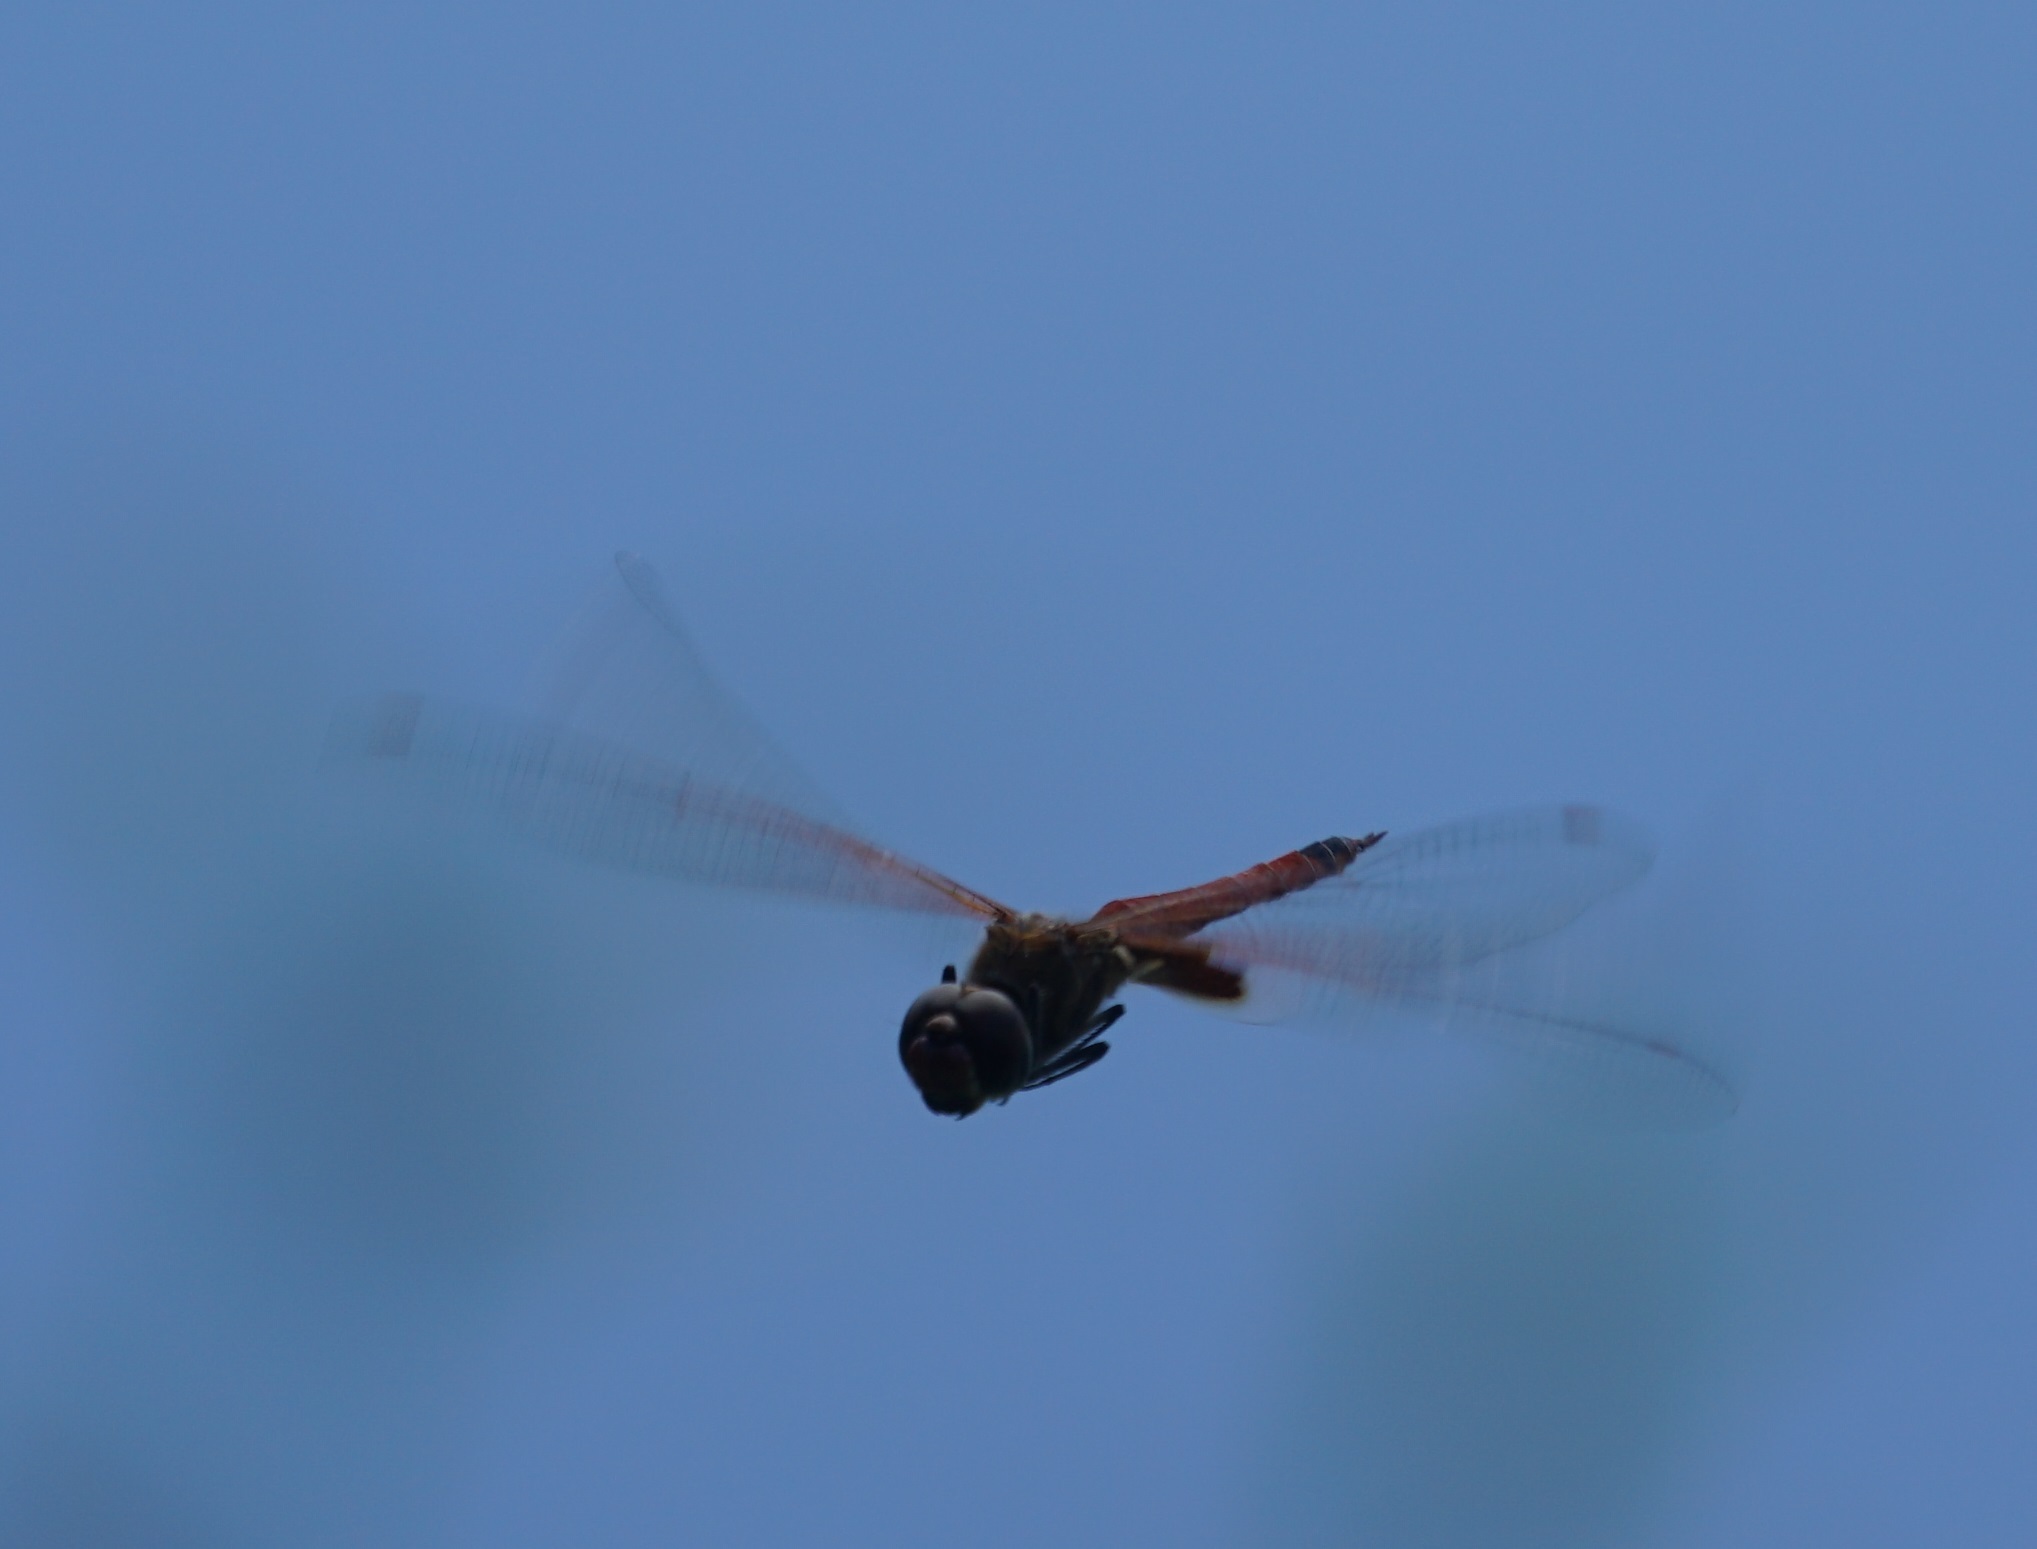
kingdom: Animalia
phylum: Arthropoda
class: Insecta
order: Odonata
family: Libellulidae
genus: Tramea
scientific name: Tramea loewii
